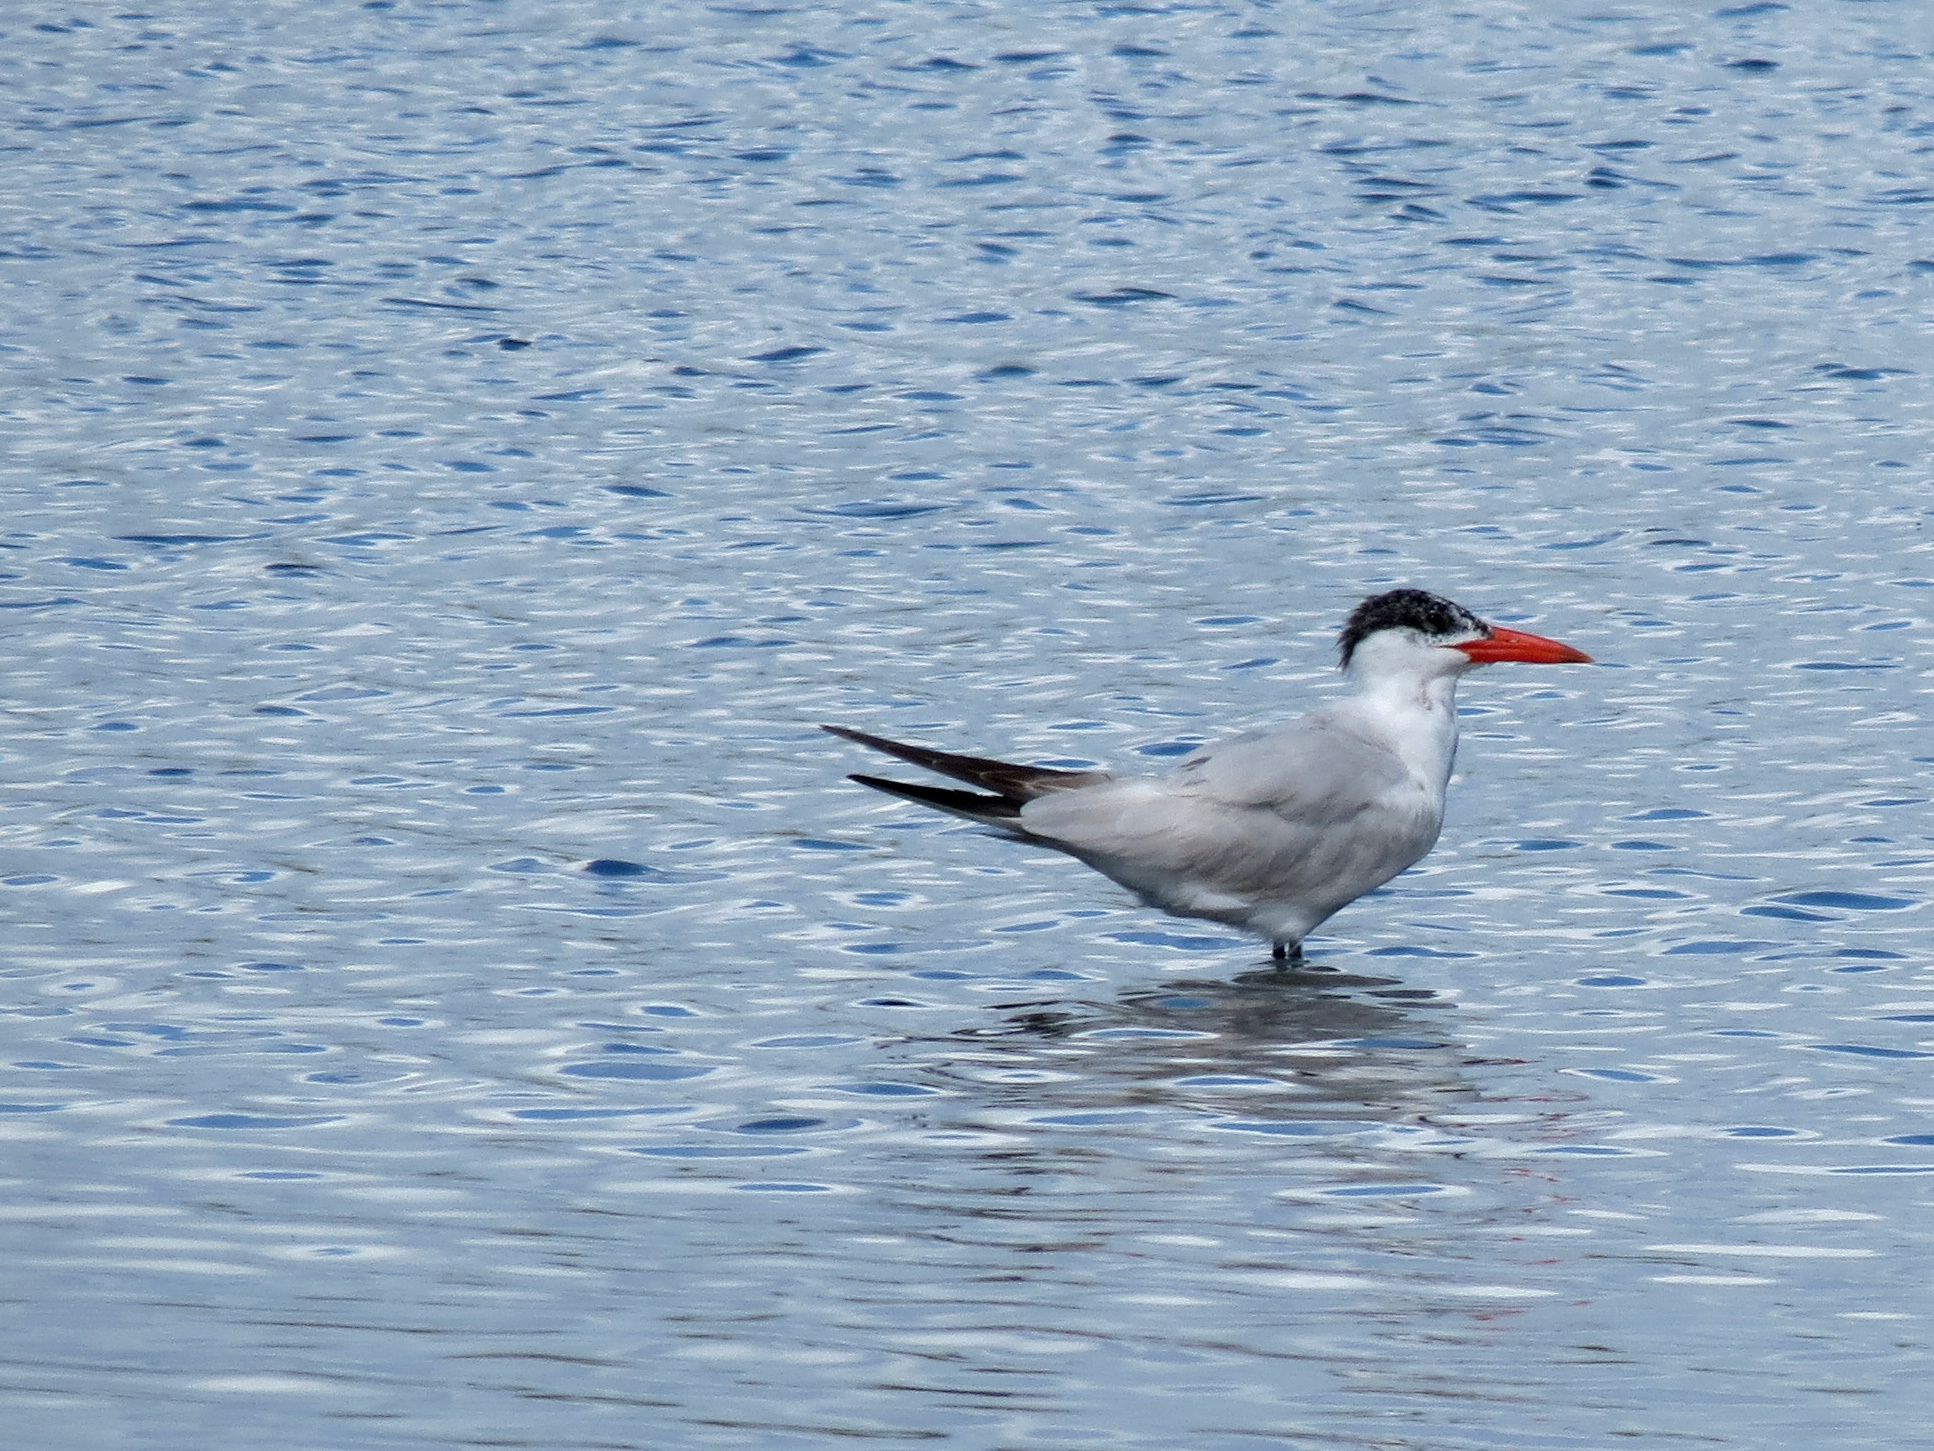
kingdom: Animalia
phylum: Chordata
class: Aves
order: Charadriiformes
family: Laridae
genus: Hydroprogne
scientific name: Hydroprogne caspia
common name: Caspian tern
